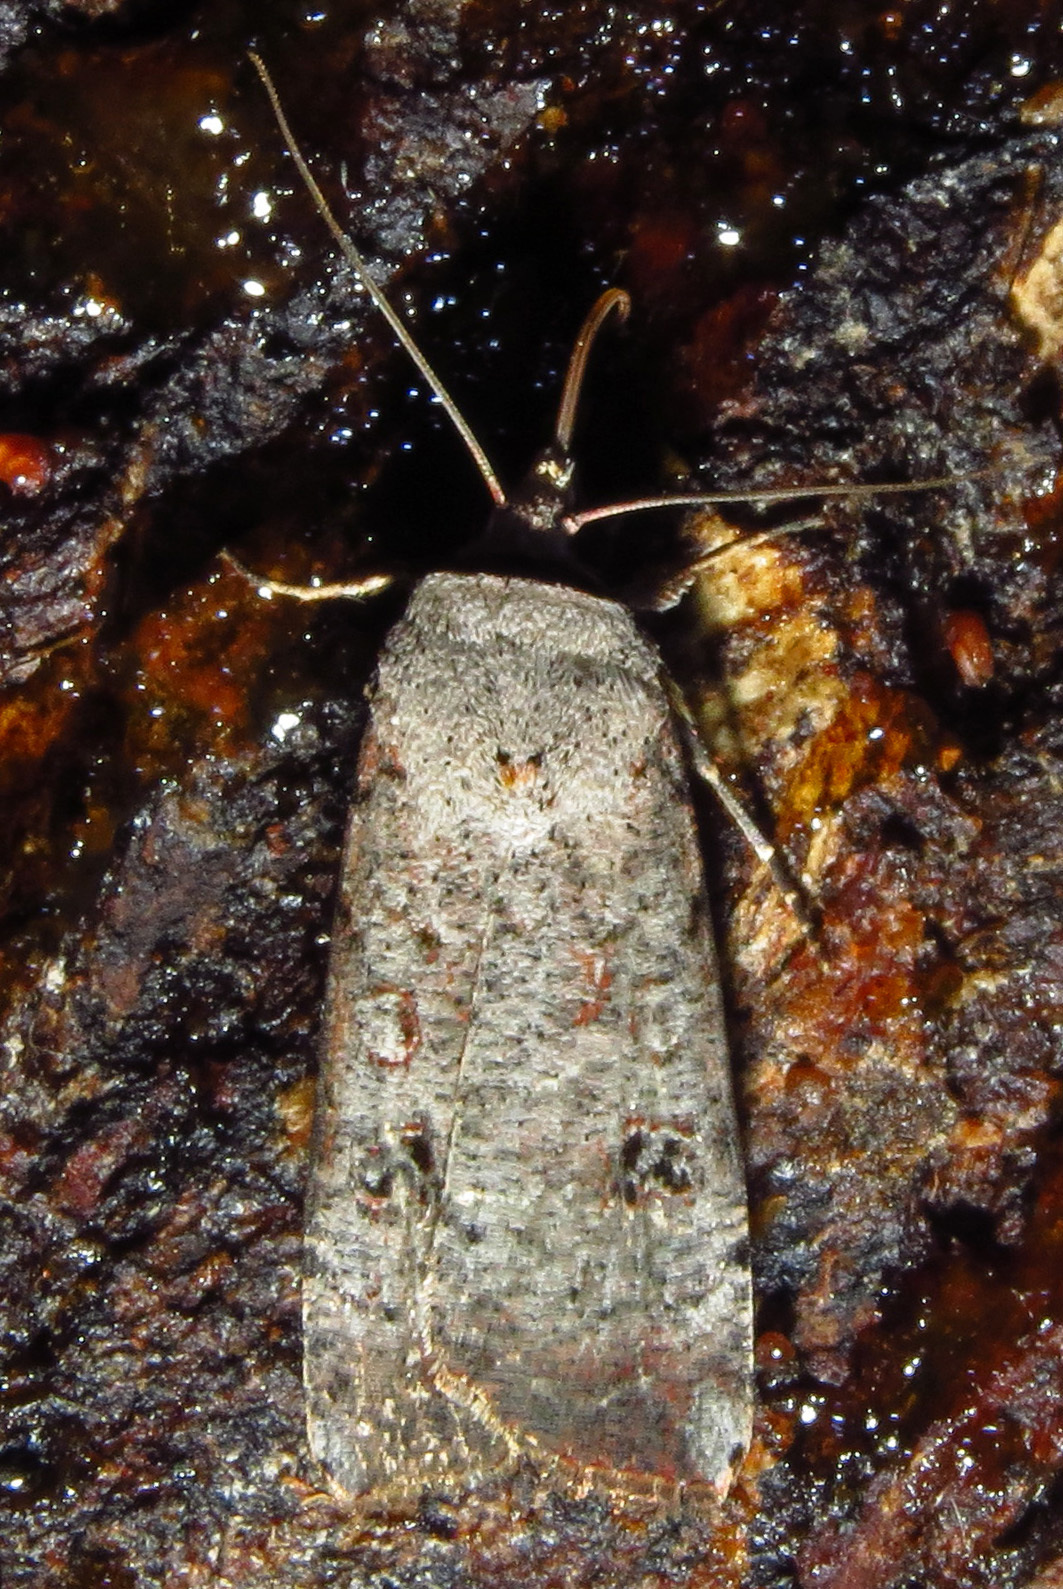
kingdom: Animalia
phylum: Arthropoda
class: Insecta
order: Lepidoptera
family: Noctuidae
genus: Anicla
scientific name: Anicla infecta
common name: Green cutworm
